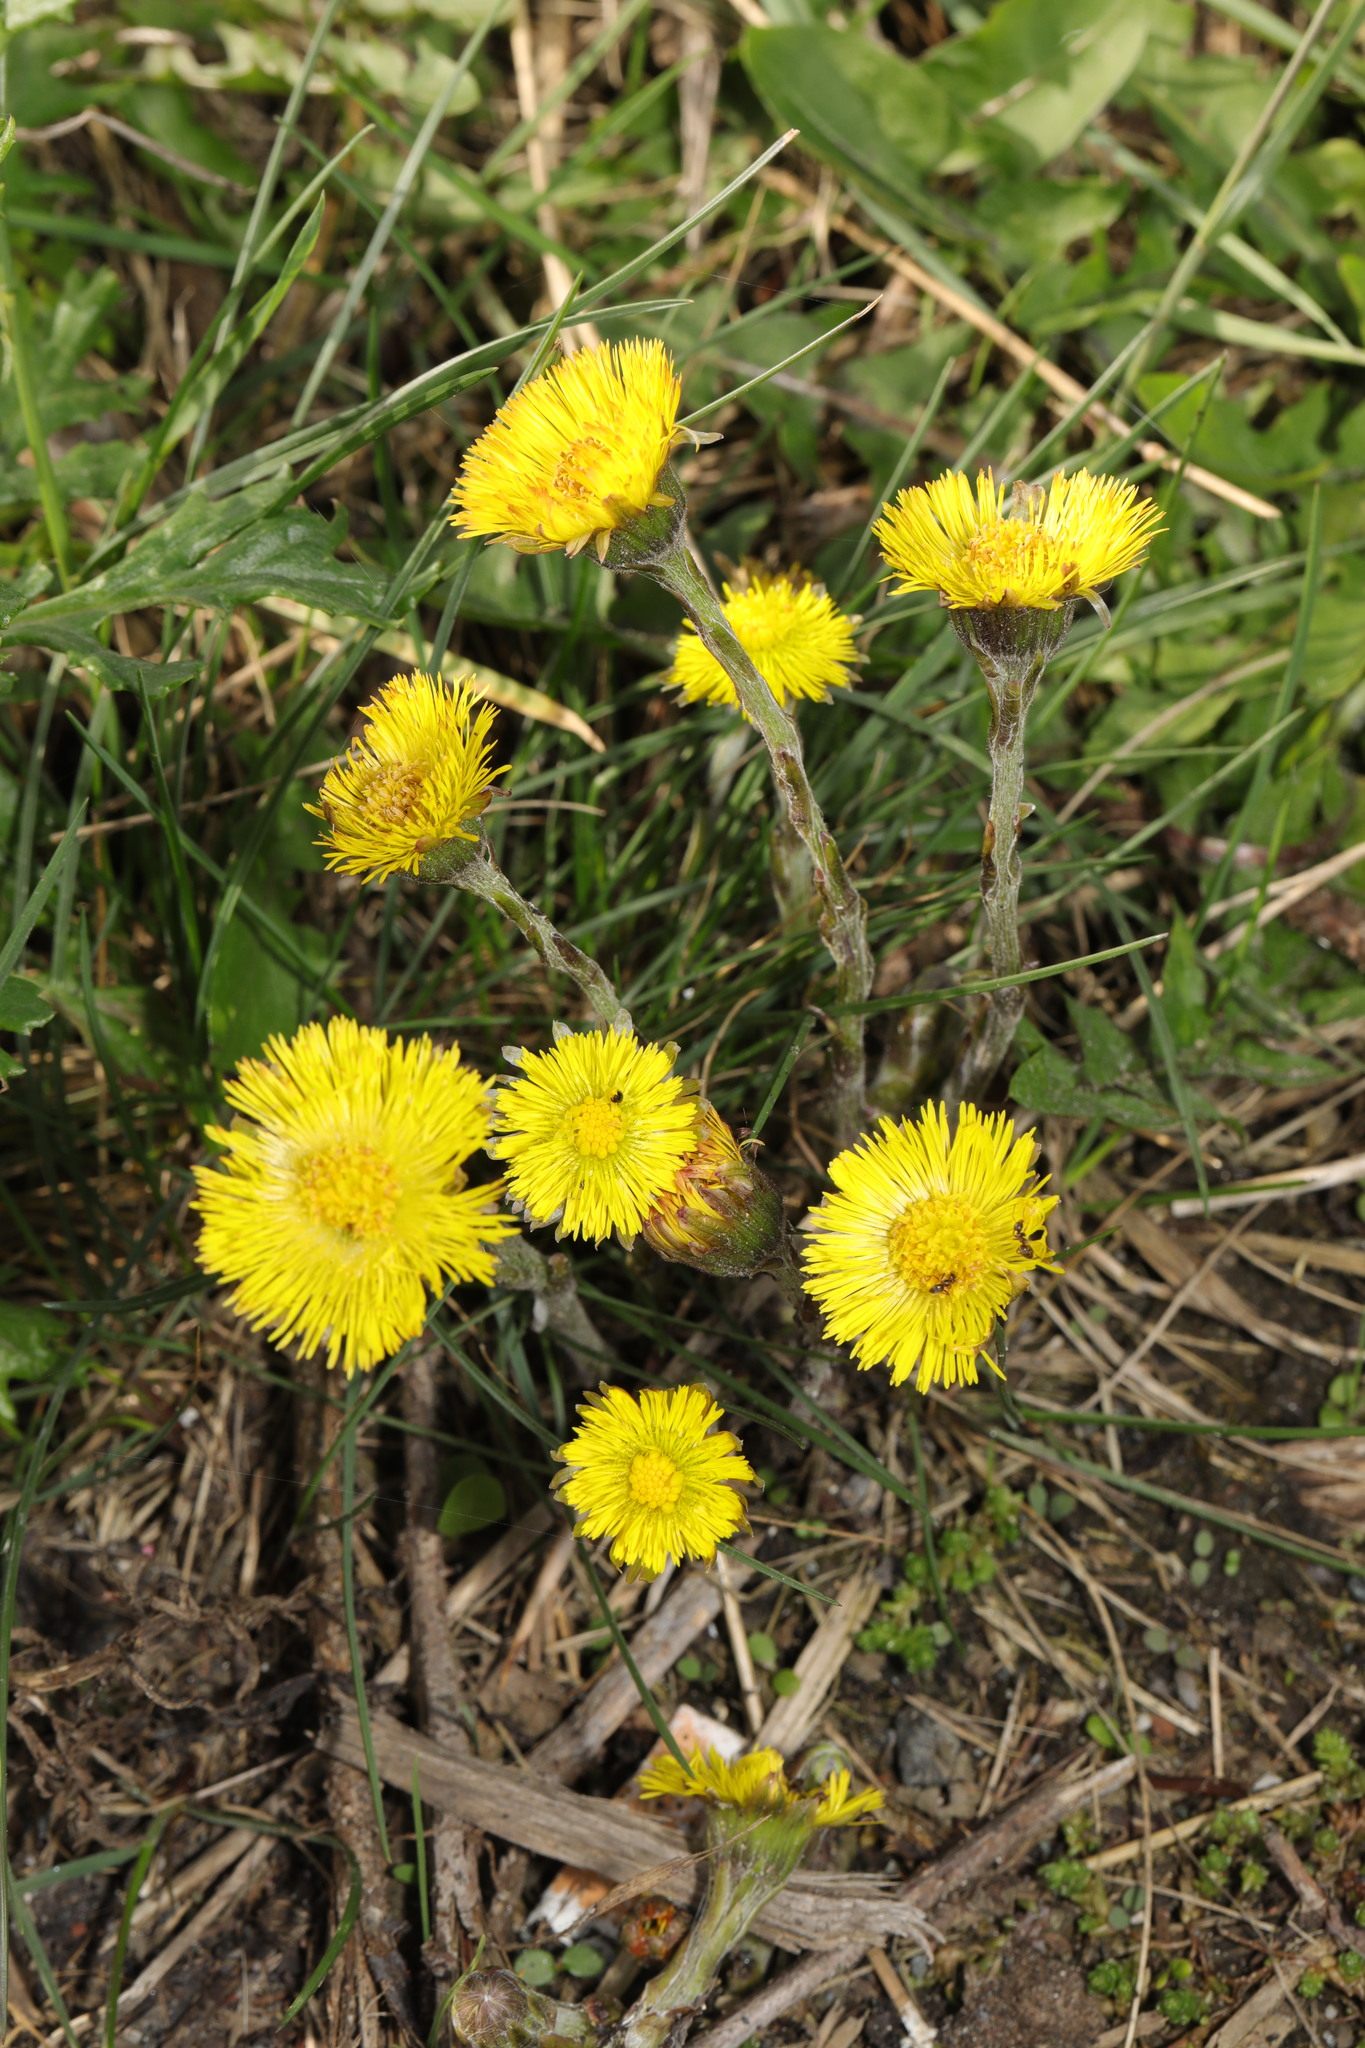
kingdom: Plantae
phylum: Tracheophyta
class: Magnoliopsida
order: Asterales
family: Asteraceae
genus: Tussilago
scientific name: Tussilago farfara
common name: Coltsfoot
